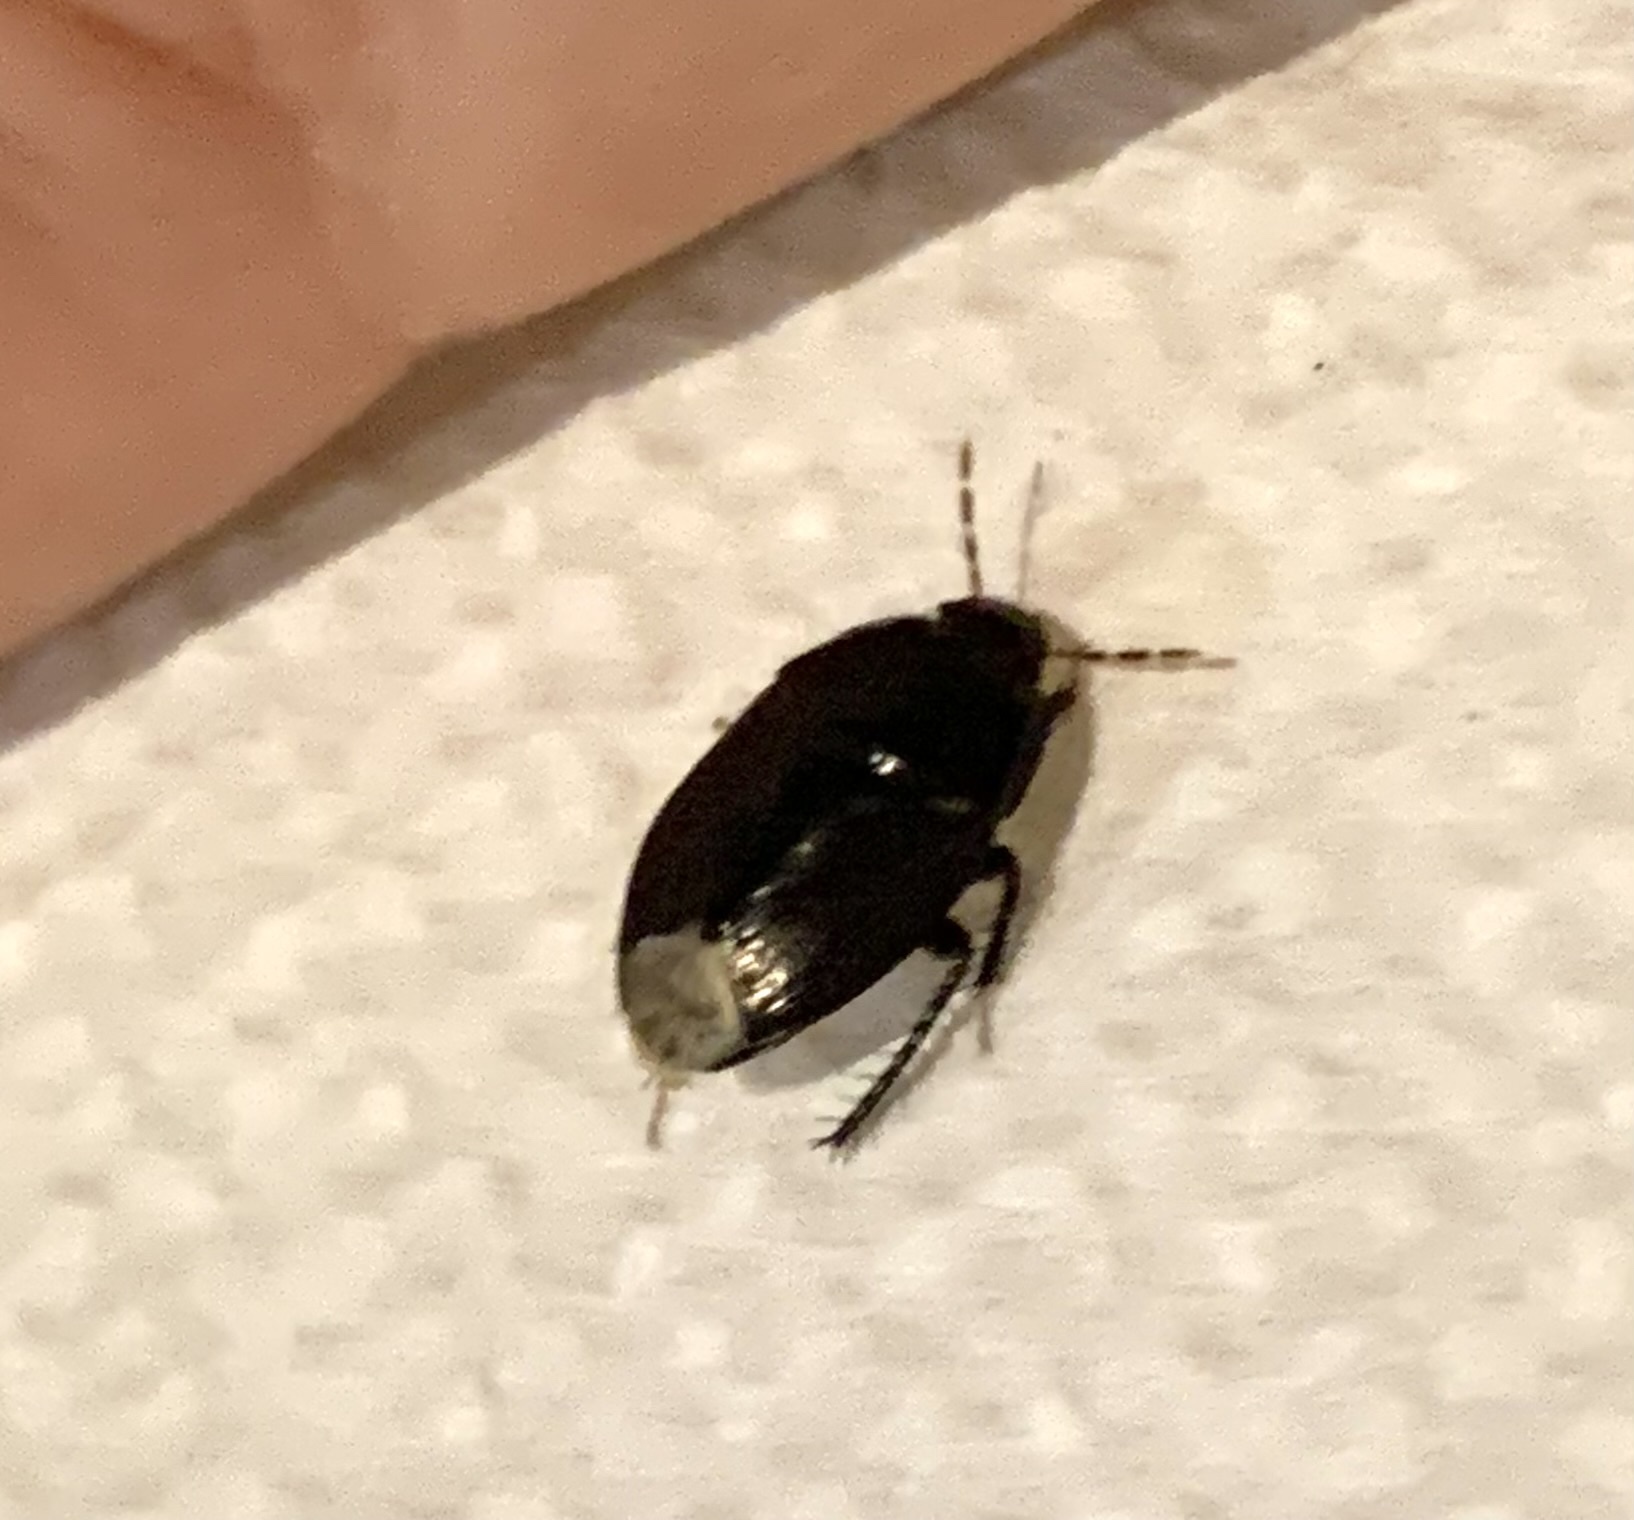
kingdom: Animalia
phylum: Arthropoda
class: Insecta
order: Hemiptera
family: Cydnidae
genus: Macroscytus
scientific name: Macroscytus brunneus
